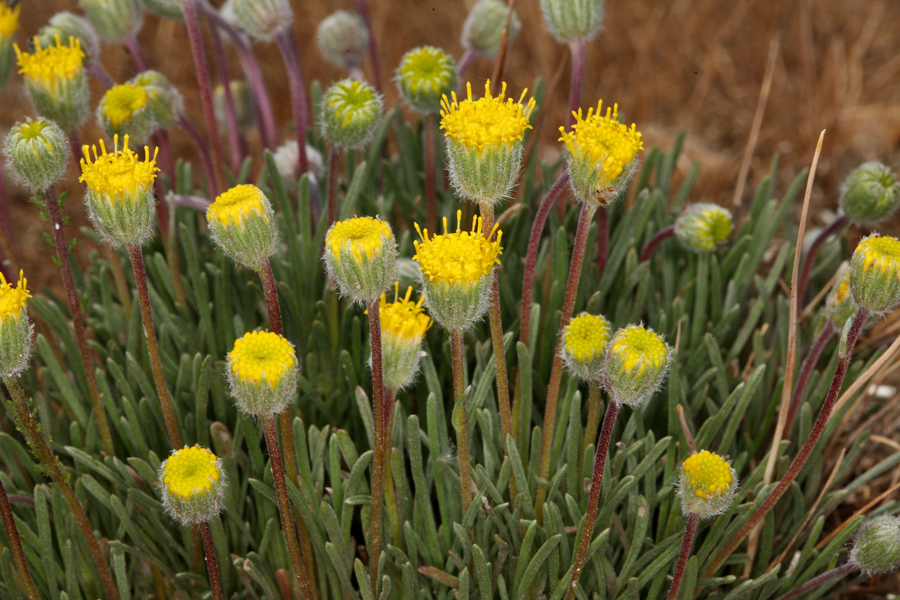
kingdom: Plantae
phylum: Tracheophyta
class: Magnoliopsida
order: Asterales
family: Asteraceae
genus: Erigeron
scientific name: Erigeron bloomeri
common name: Bloomer's fleabane
